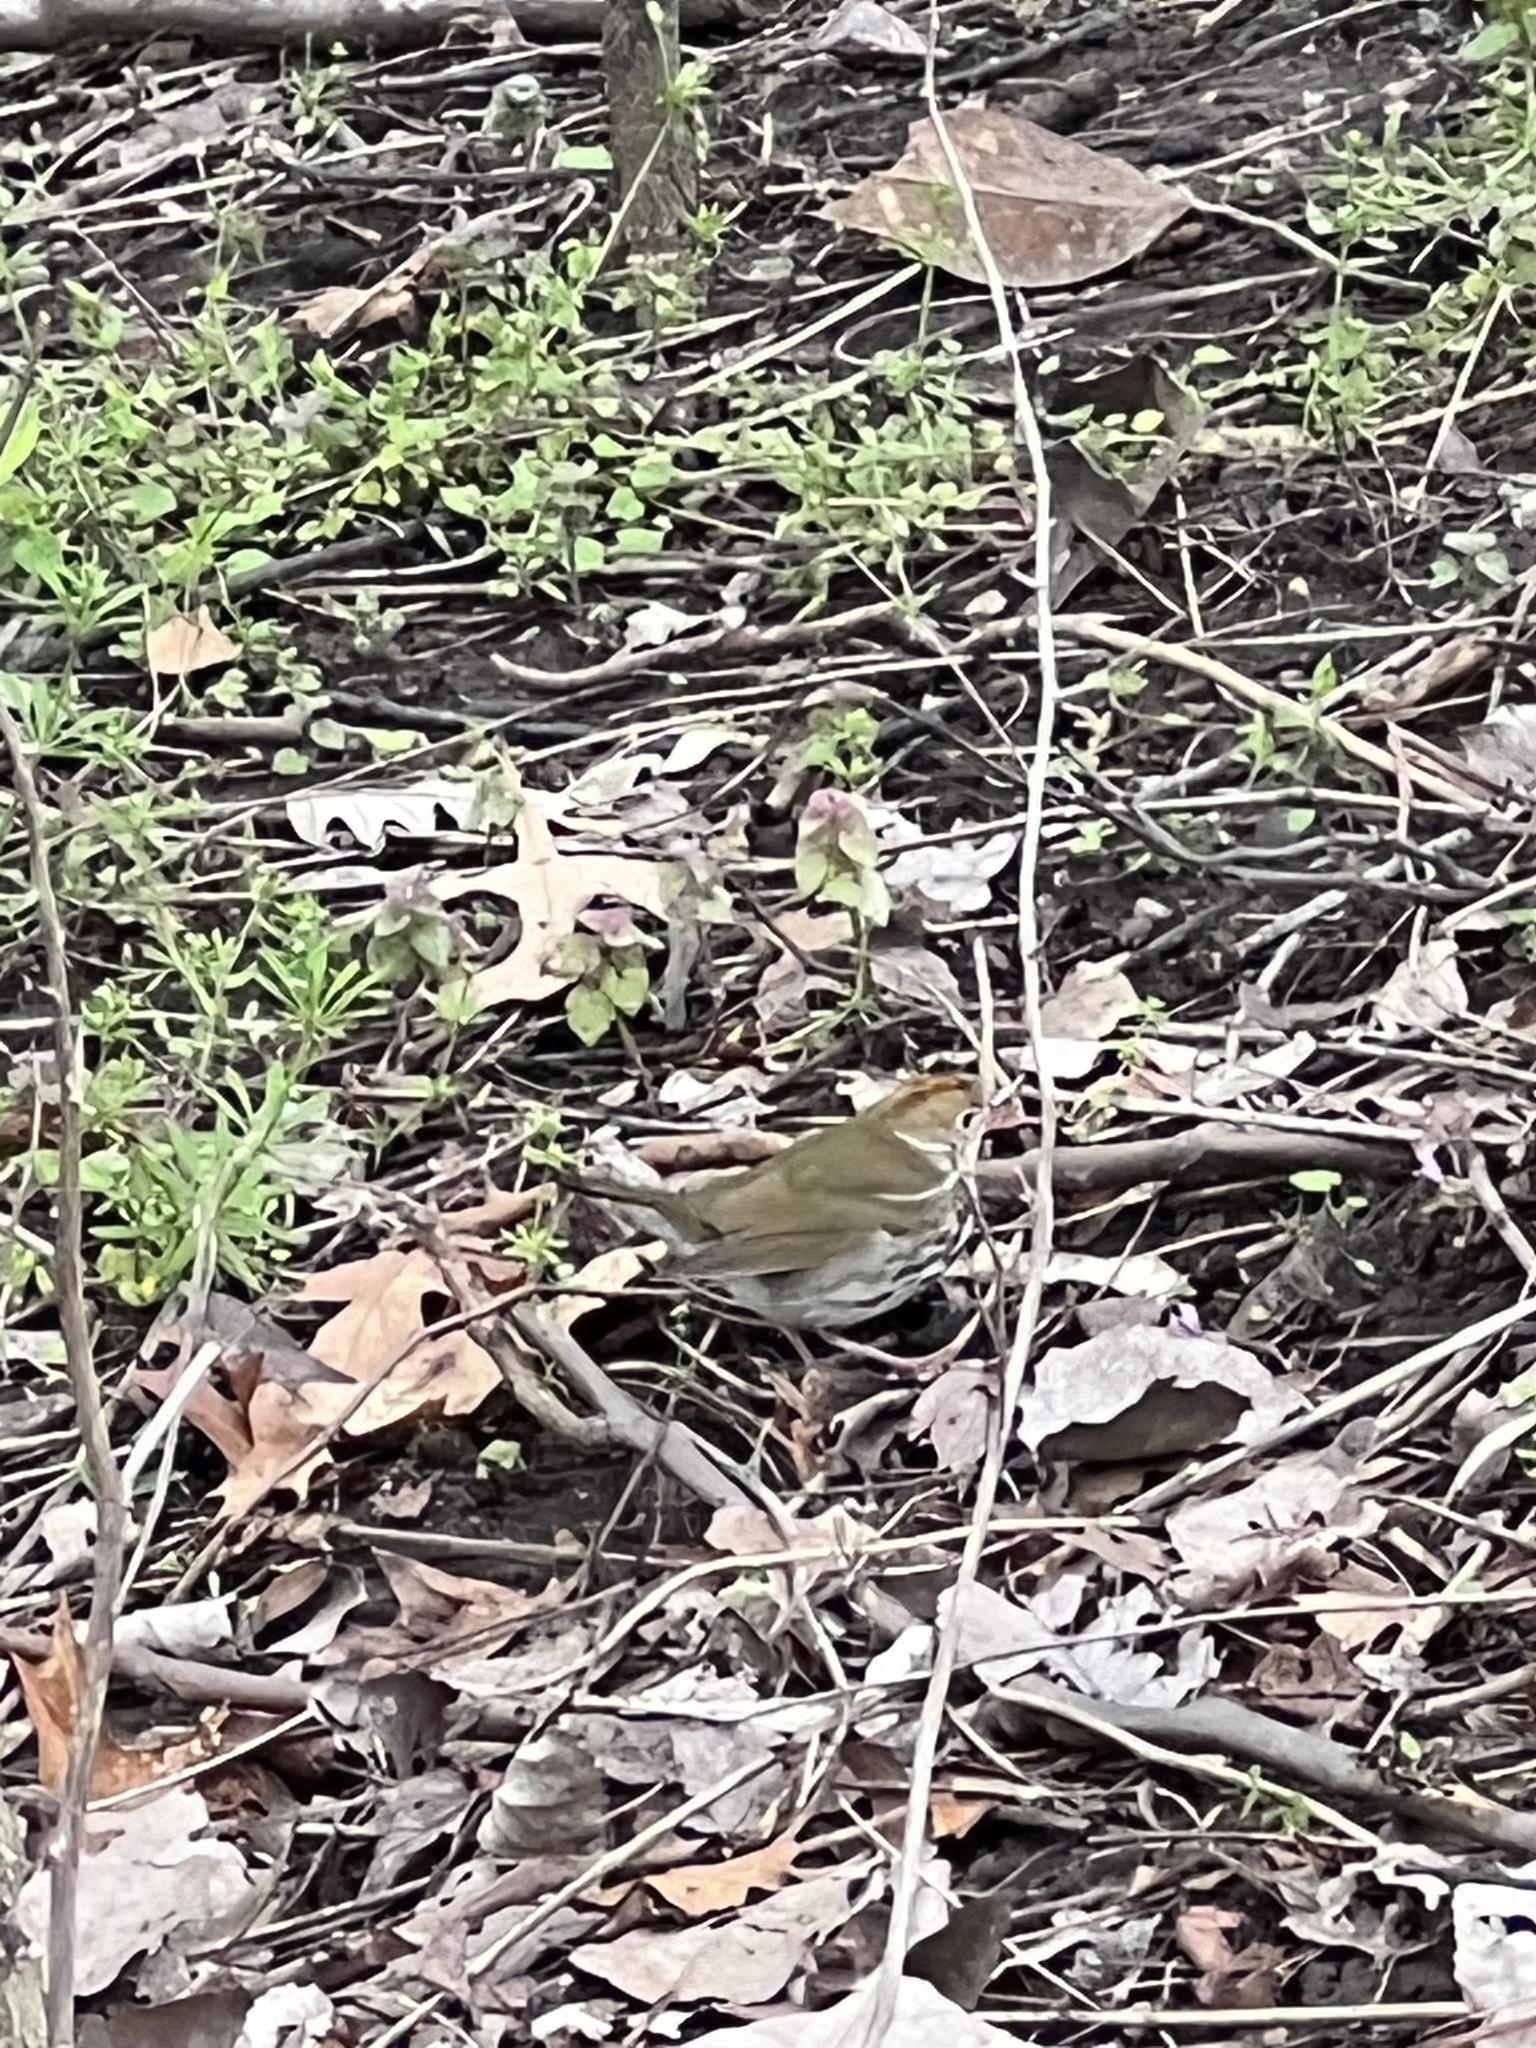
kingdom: Animalia
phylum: Chordata
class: Aves
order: Passeriformes
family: Parulidae
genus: Seiurus
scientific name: Seiurus aurocapilla
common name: Ovenbird
